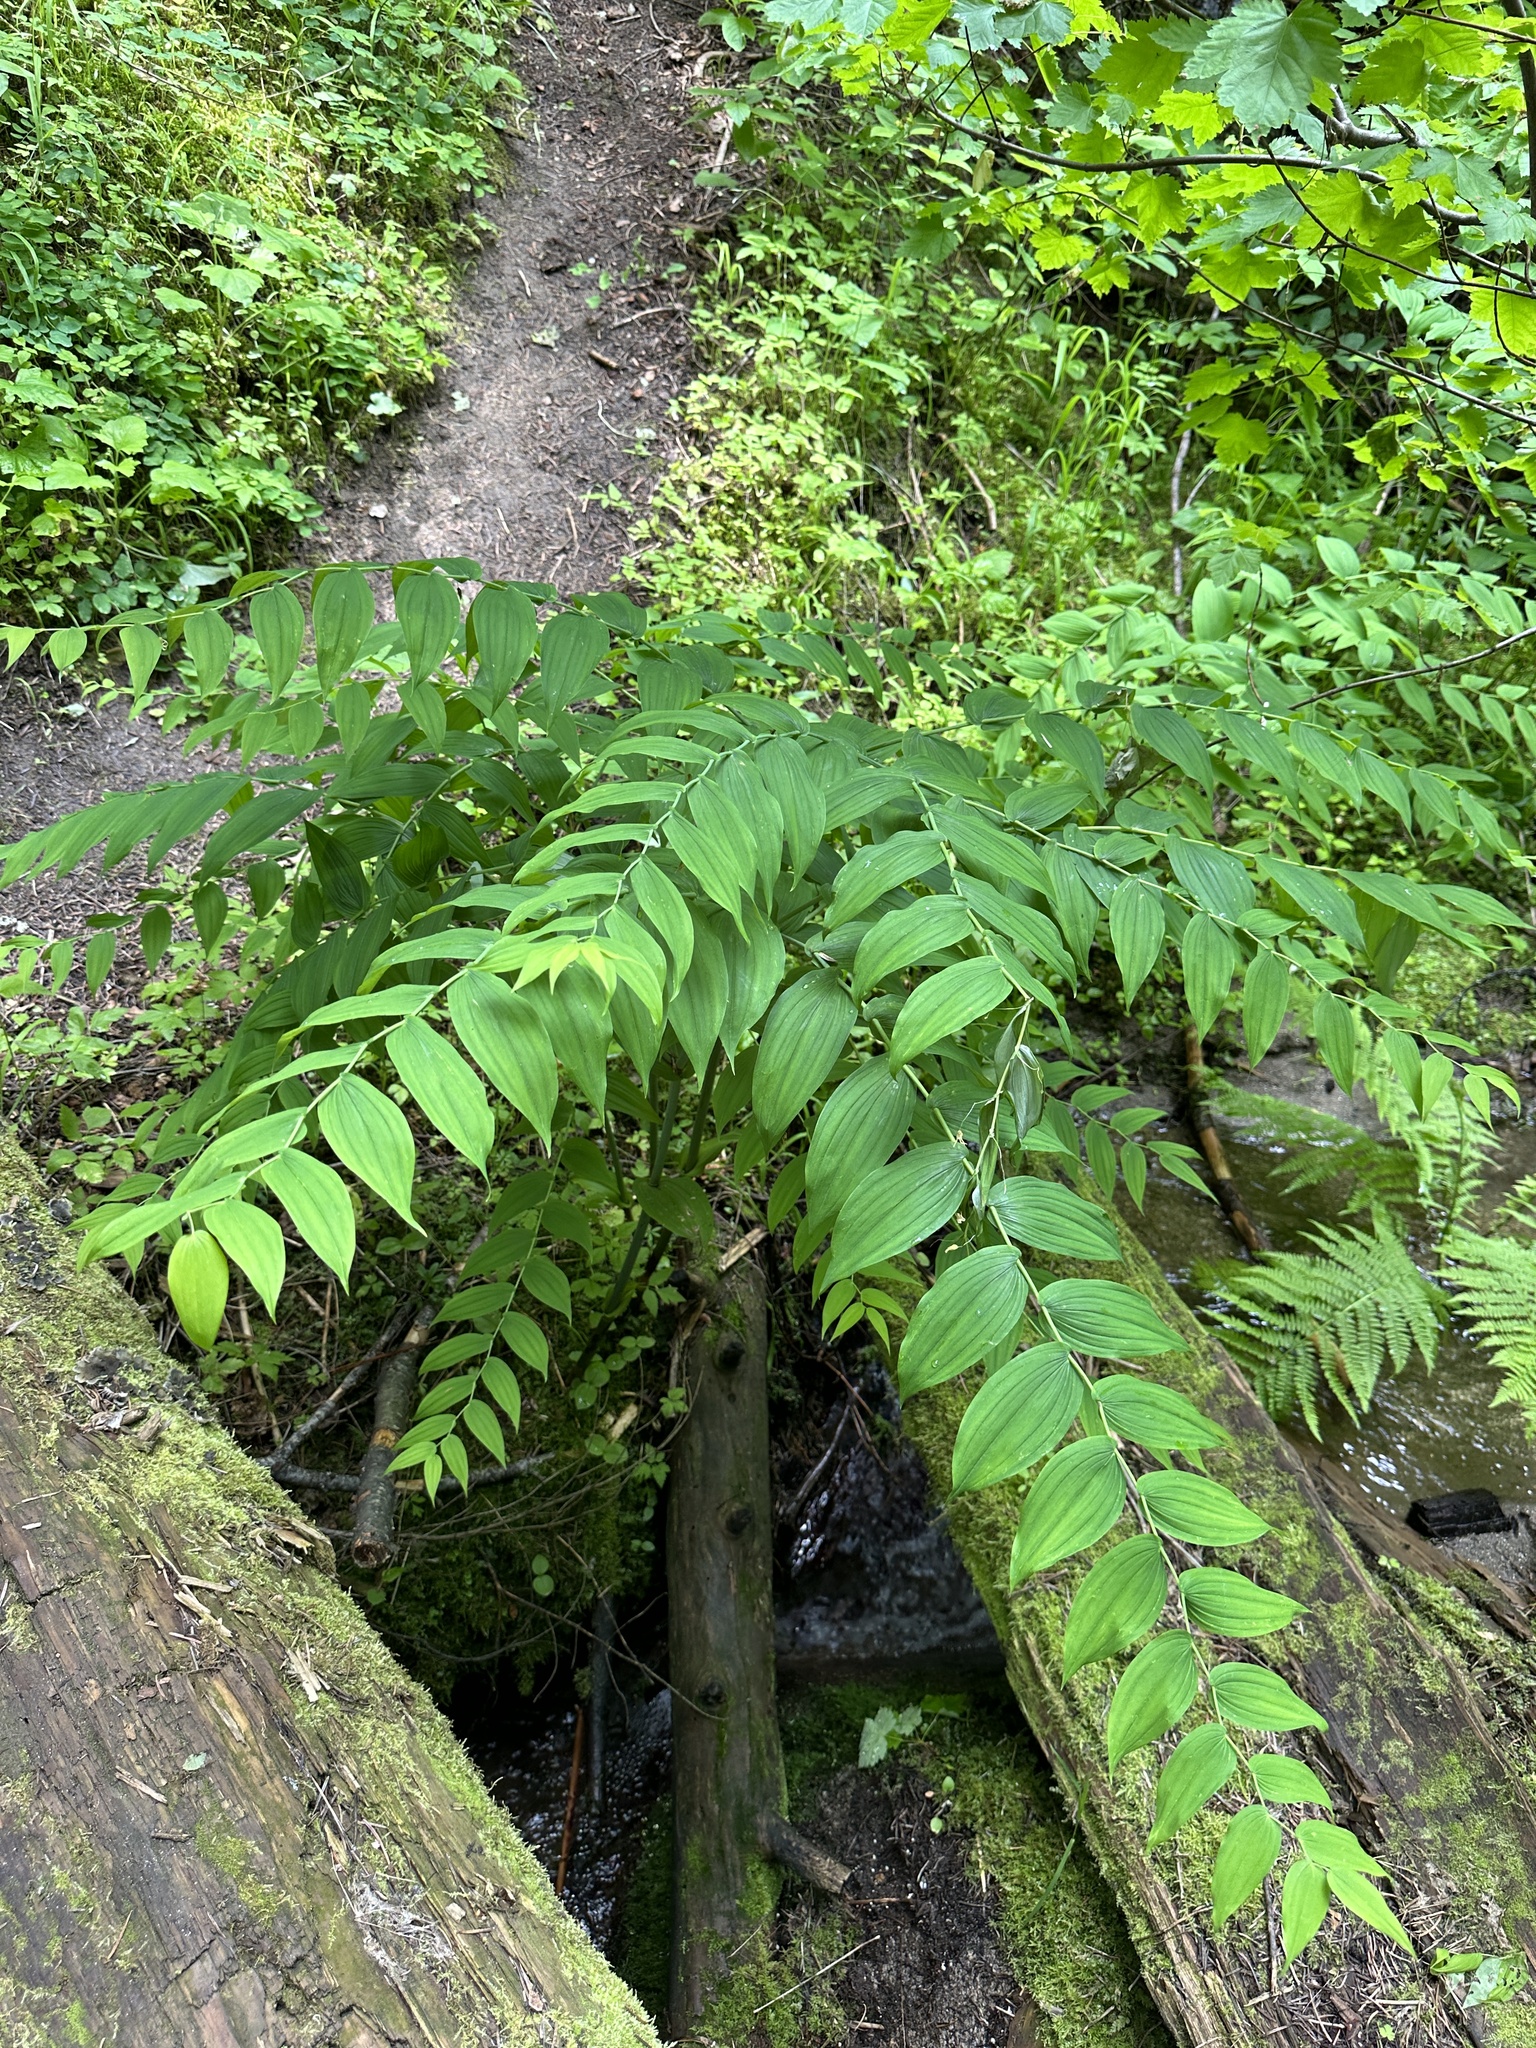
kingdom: Plantae
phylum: Tracheophyta
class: Liliopsida
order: Liliales
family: Liliaceae
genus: Streptopus
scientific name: Streptopus amplexifolius
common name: Clasp twisted stalk
